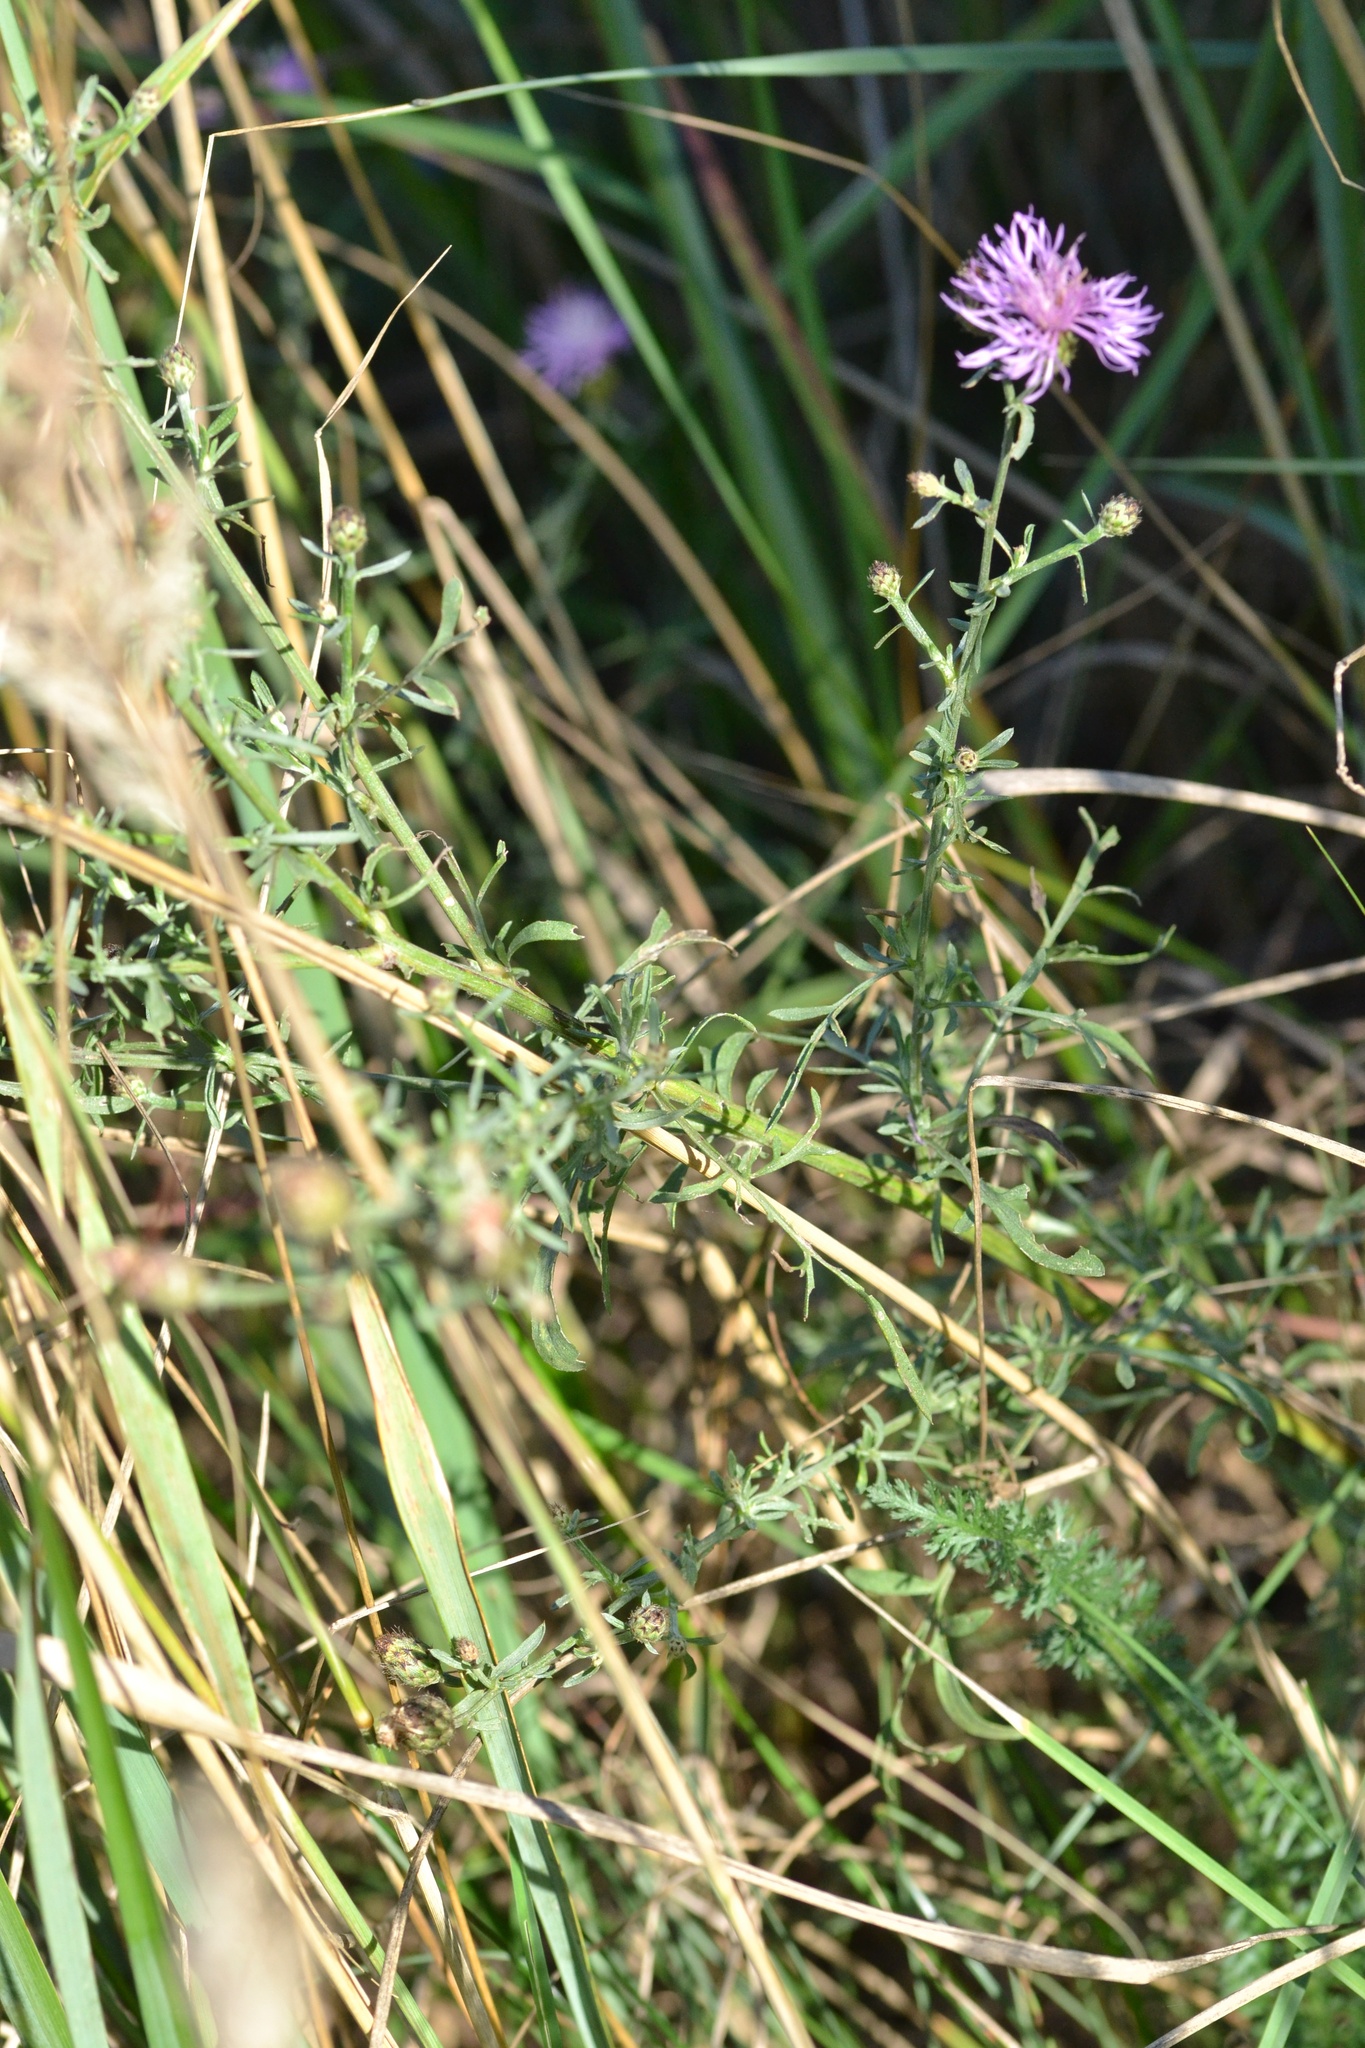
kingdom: Plantae
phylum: Tracheophyta
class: Magnoliopsida
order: Asterales
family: Asteraceae
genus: Centaurea
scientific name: Centaurea stoebe
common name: Spotted knapweed
